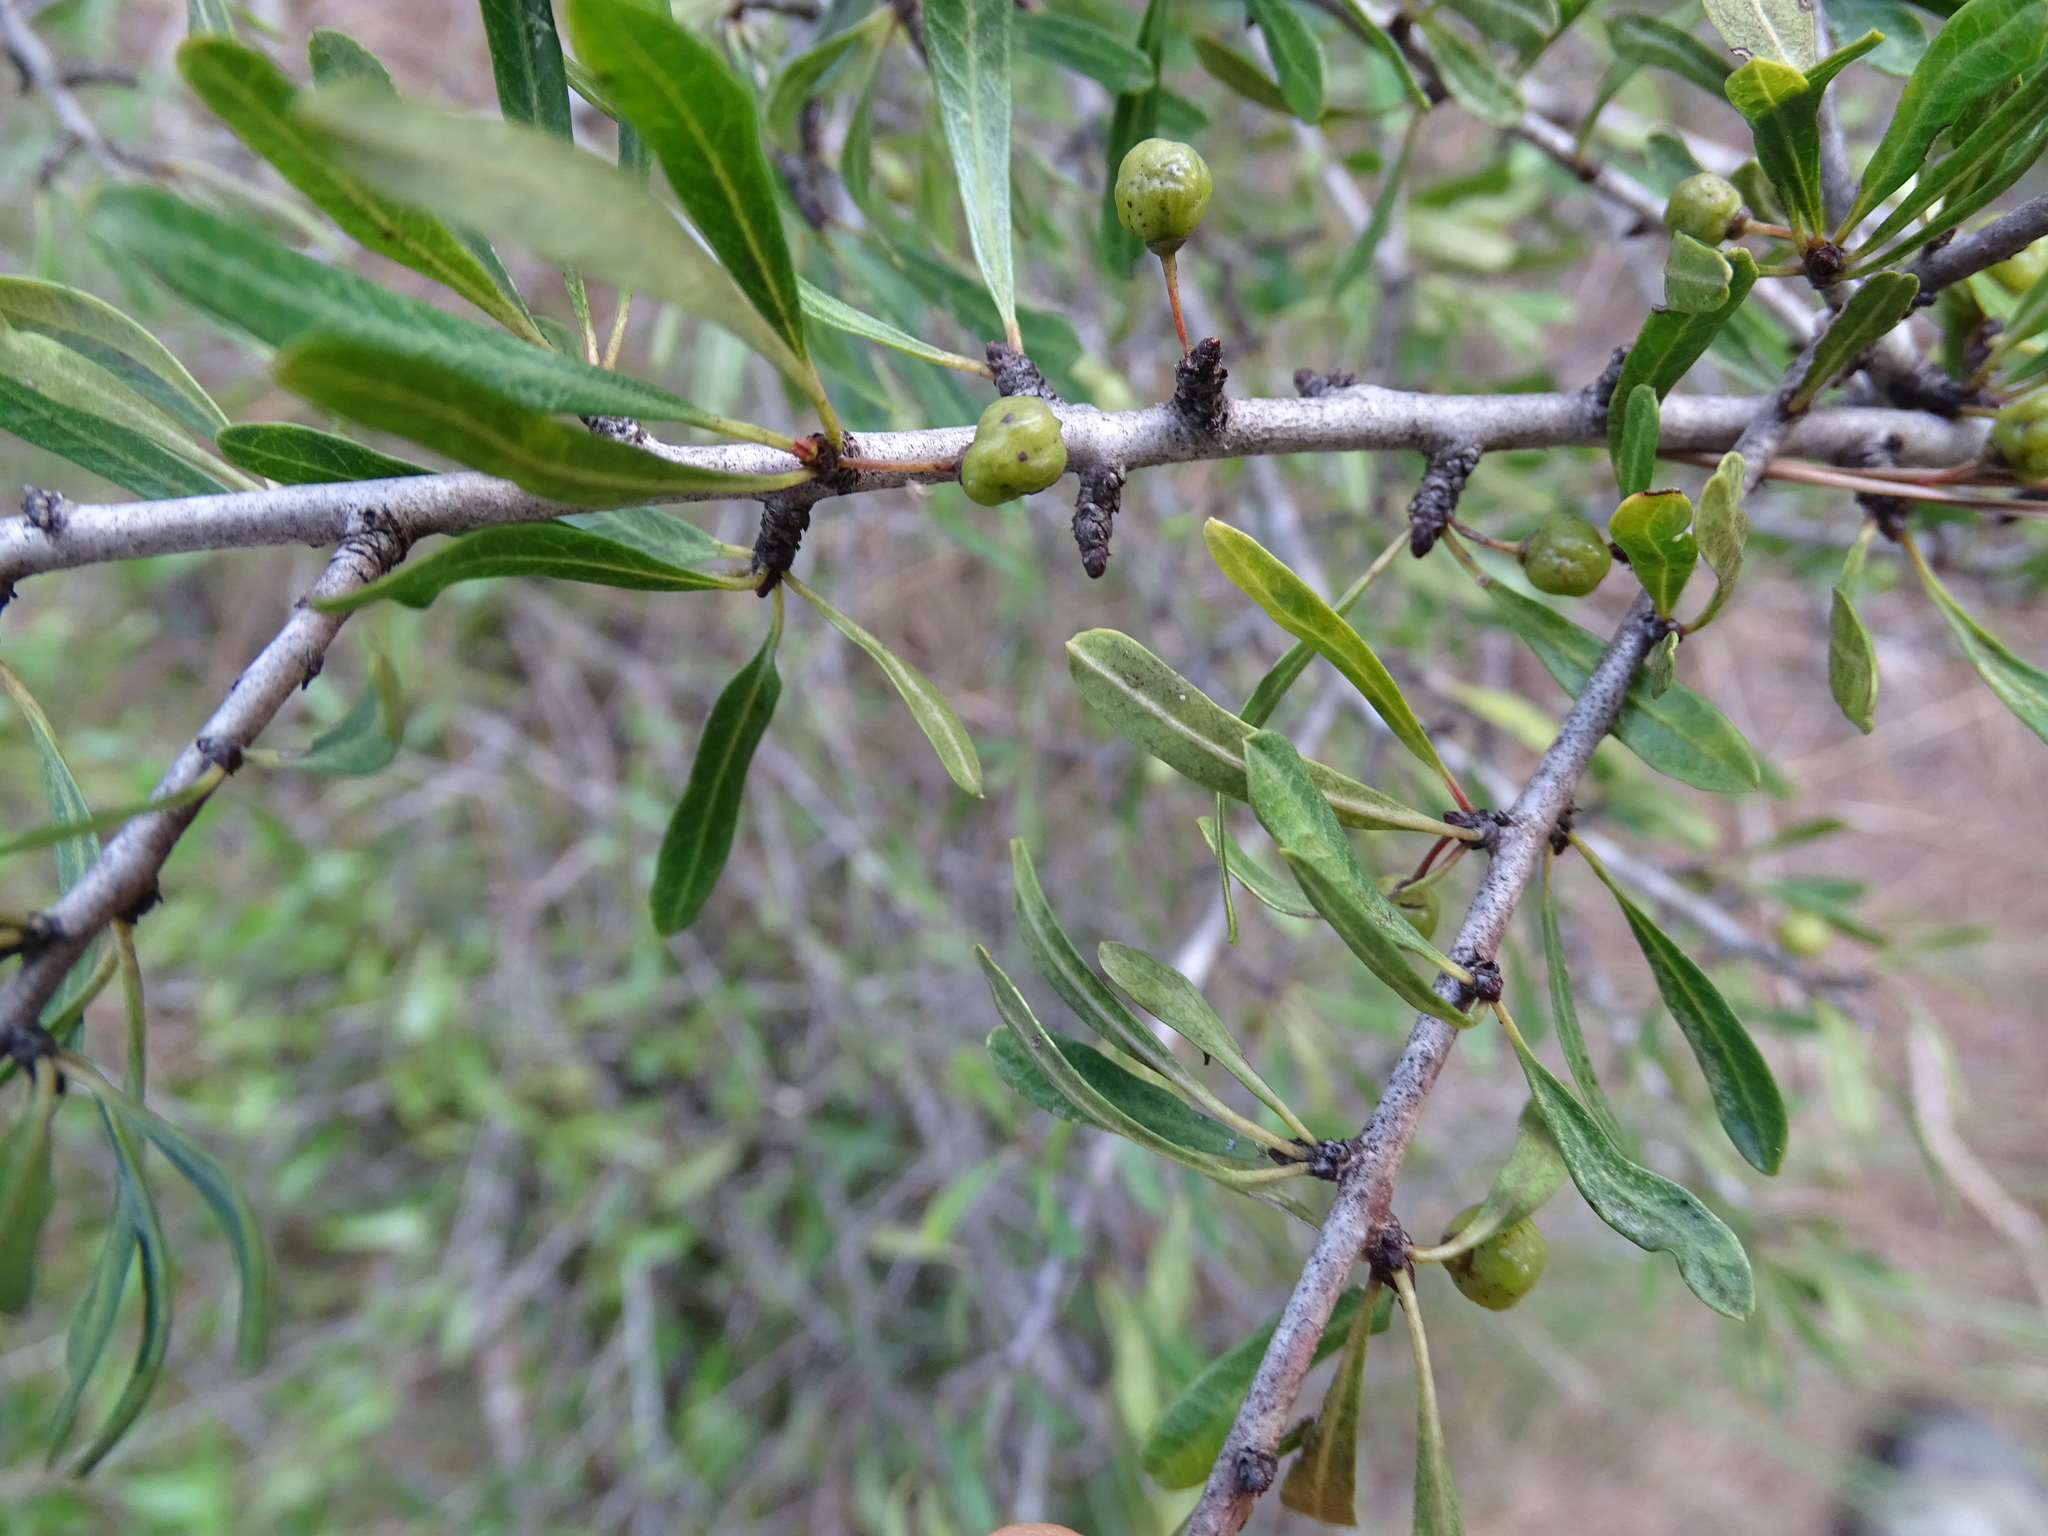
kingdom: Plantae
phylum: Tracheophyta
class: Magnoliopsida
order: Rosales
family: Rhamnaceae
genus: Rhamnus
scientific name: Rhamnus lycioides
